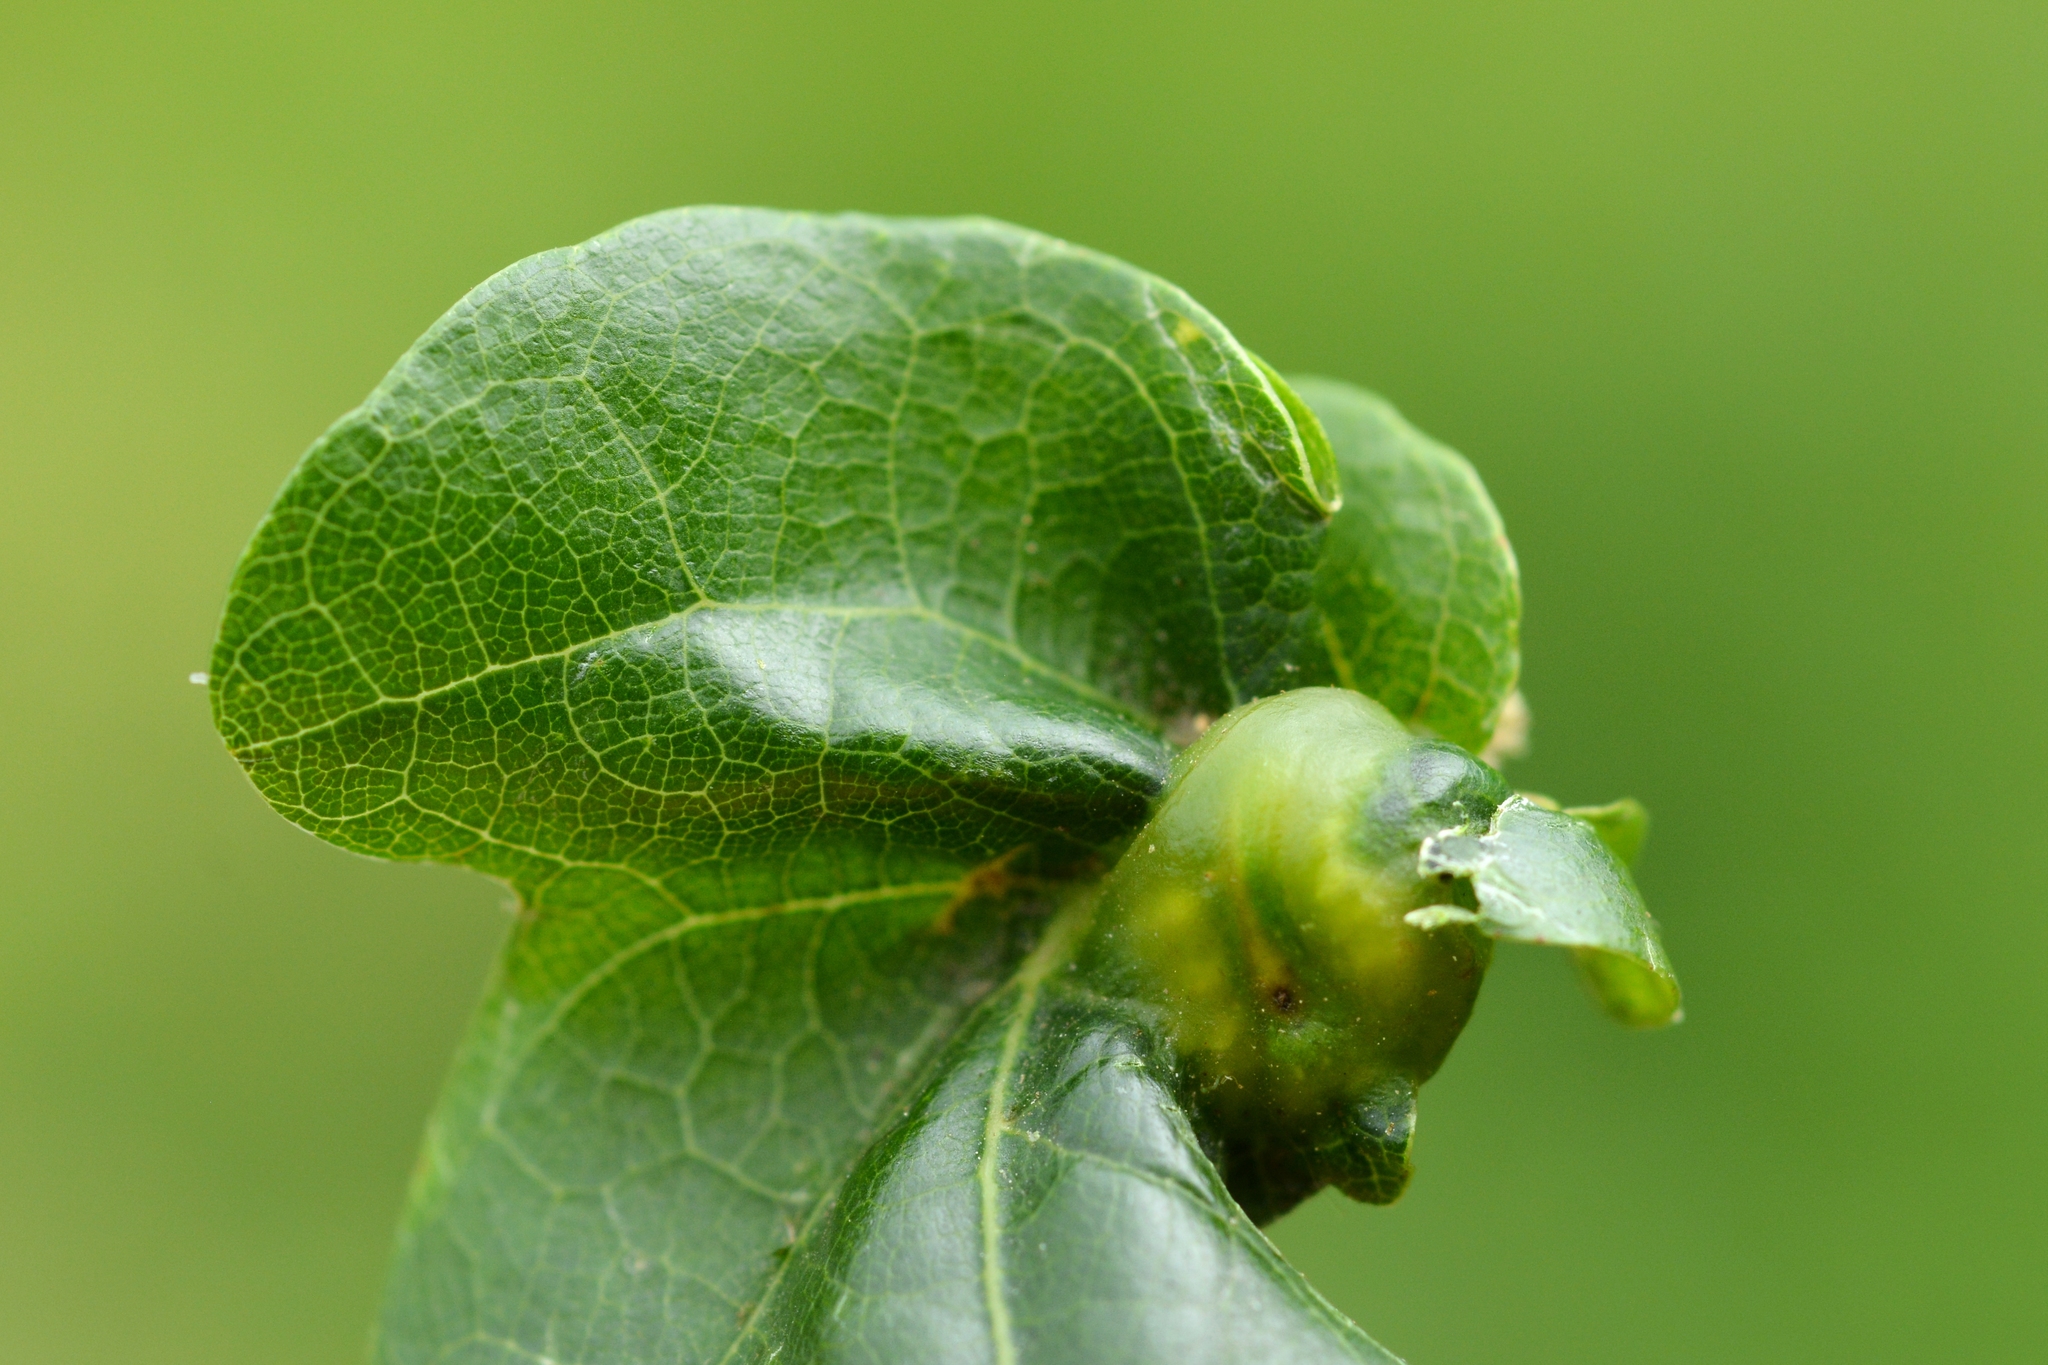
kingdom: Animalia
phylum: Arthropoda
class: Insecta
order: Hymenoptera
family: Cynipidae
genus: Andricus
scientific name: Andricus curvator
